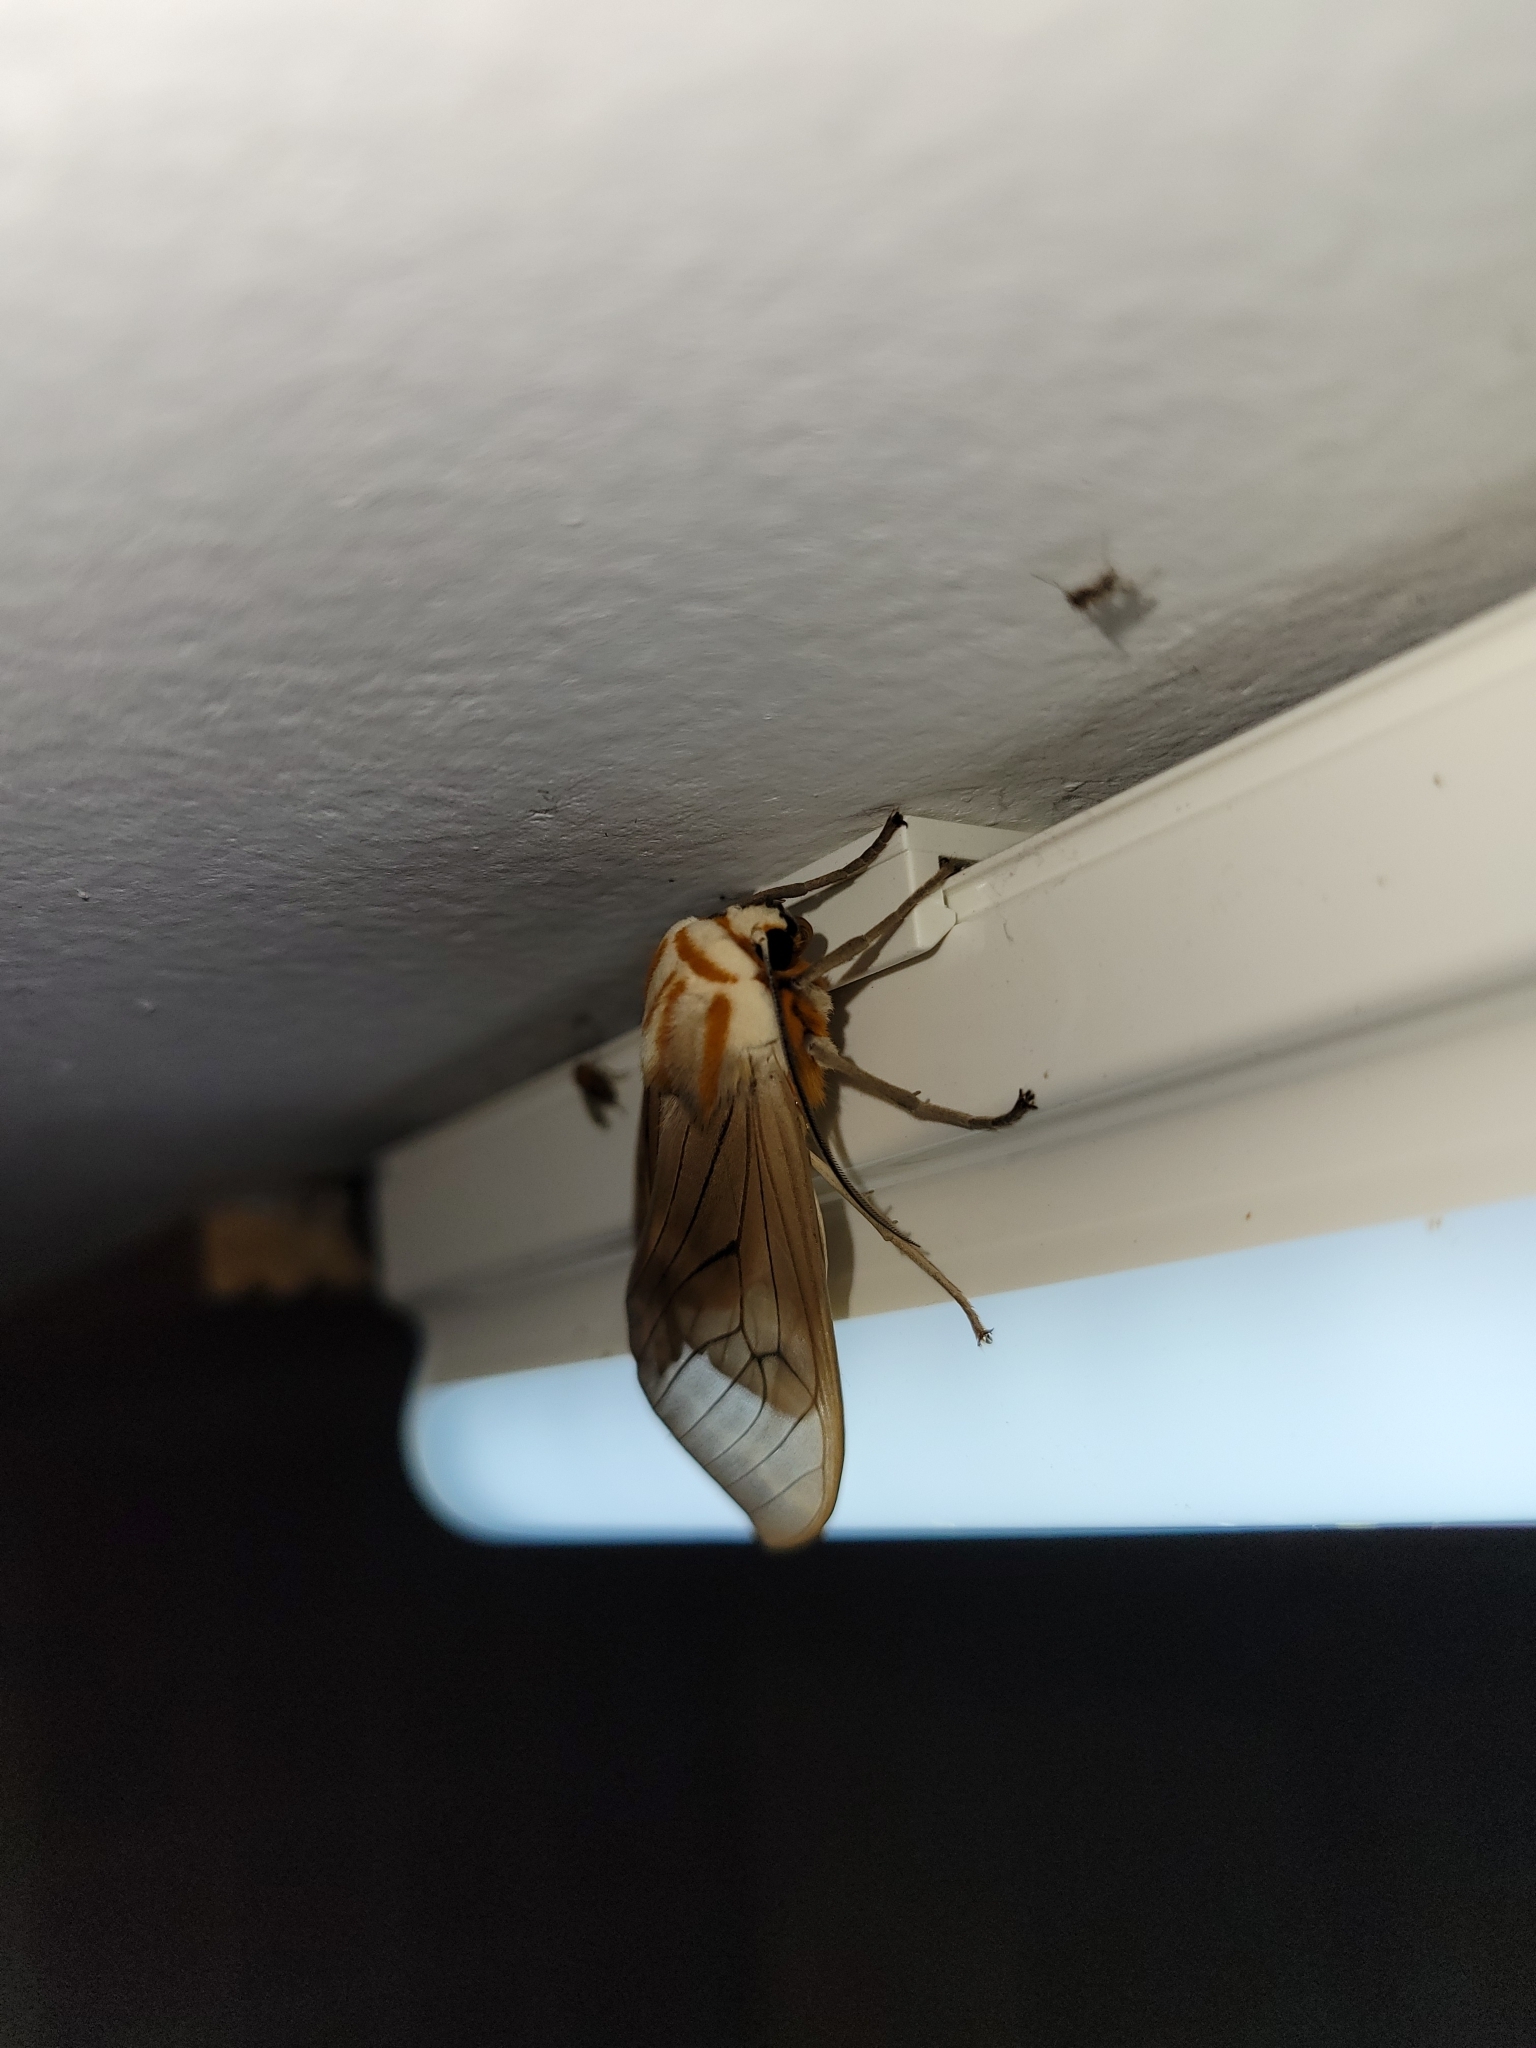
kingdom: Animalia
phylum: Arthropoda
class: Insecta
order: Lepidoptera
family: Erebidae
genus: Amastus
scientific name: Amastus aconia
